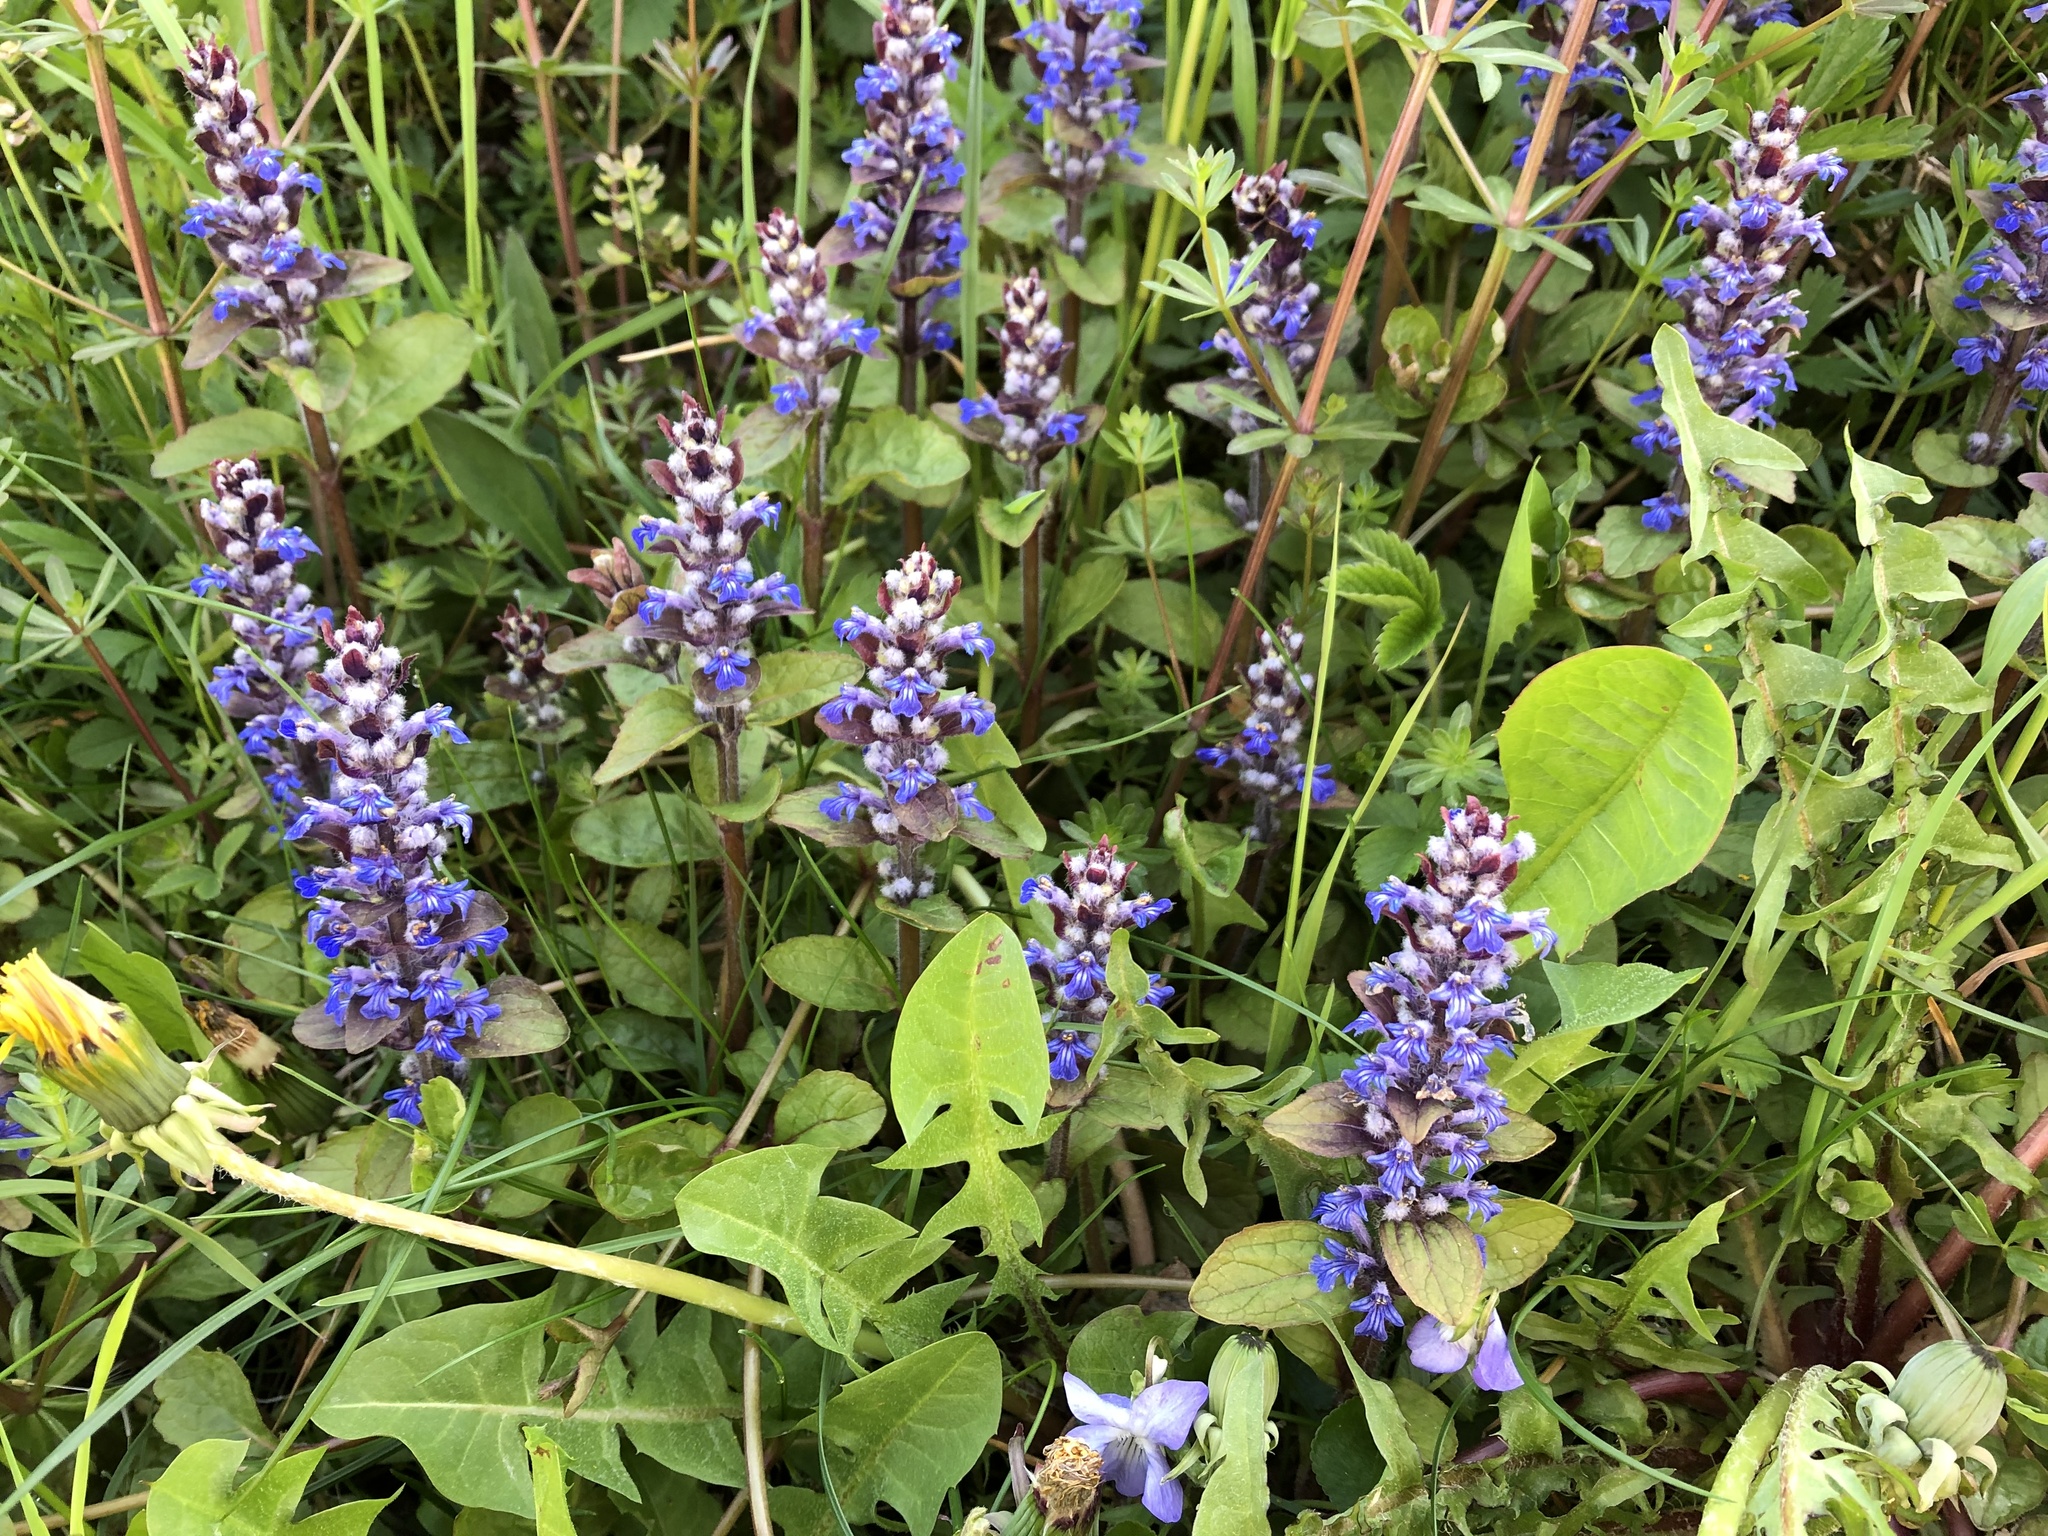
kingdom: Plantae
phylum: Tracheophyta
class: Magnoliopsida
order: Lamiales
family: Lamiaceae
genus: Ajuga
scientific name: Ajuga reptans
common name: Bugle
